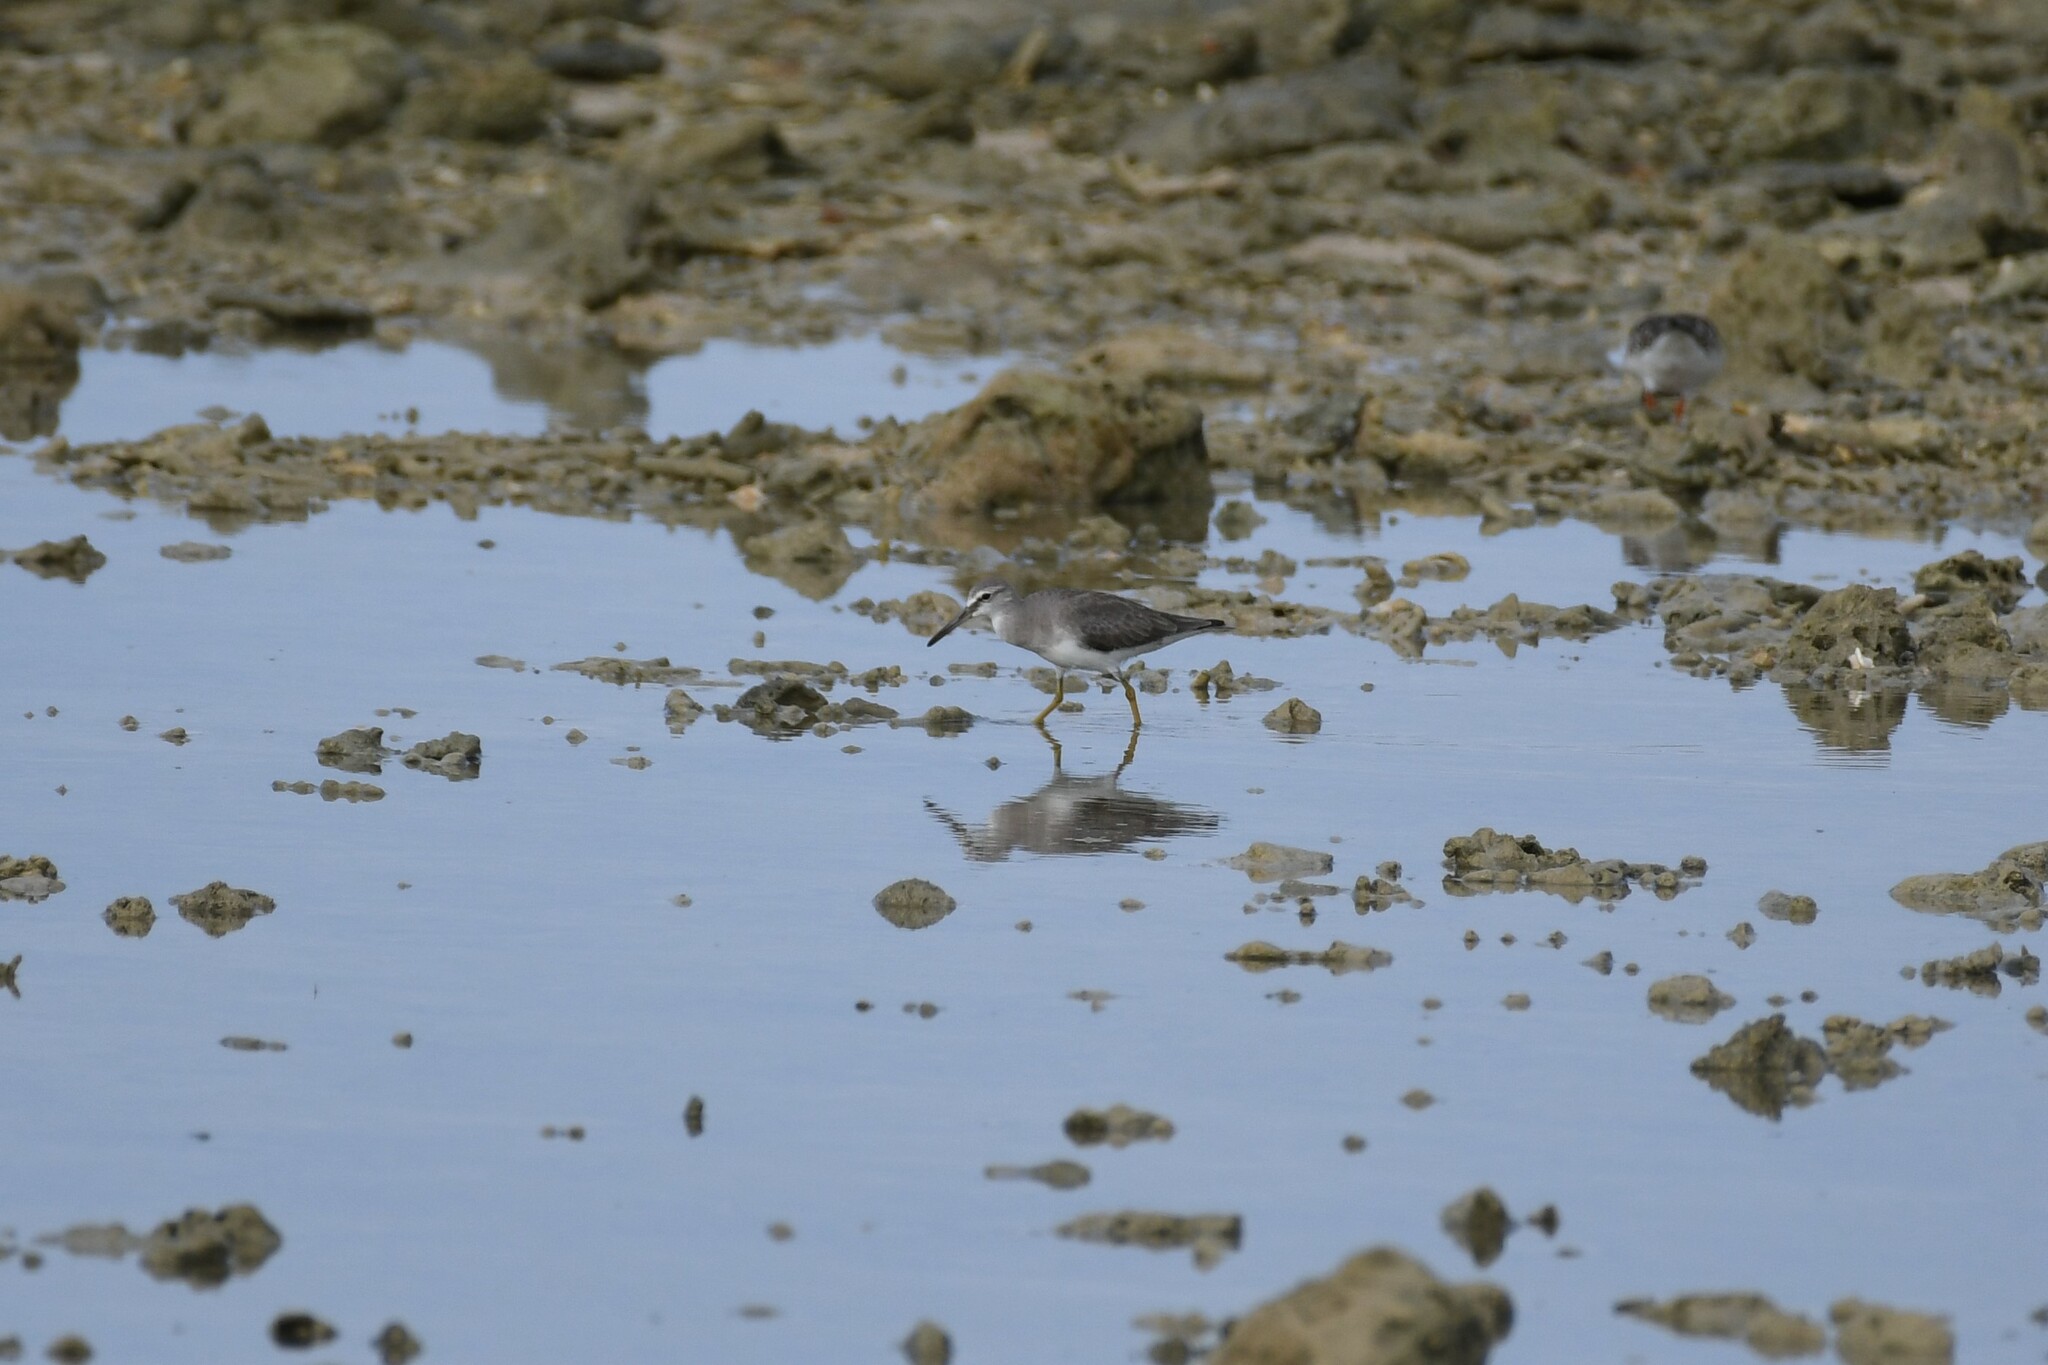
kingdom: Animalia
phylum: Chordata
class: Aves
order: Charadriiformes
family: Scolopacidae
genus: Tringa
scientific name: Tringa brevipes
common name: Grey-tailed tattler
